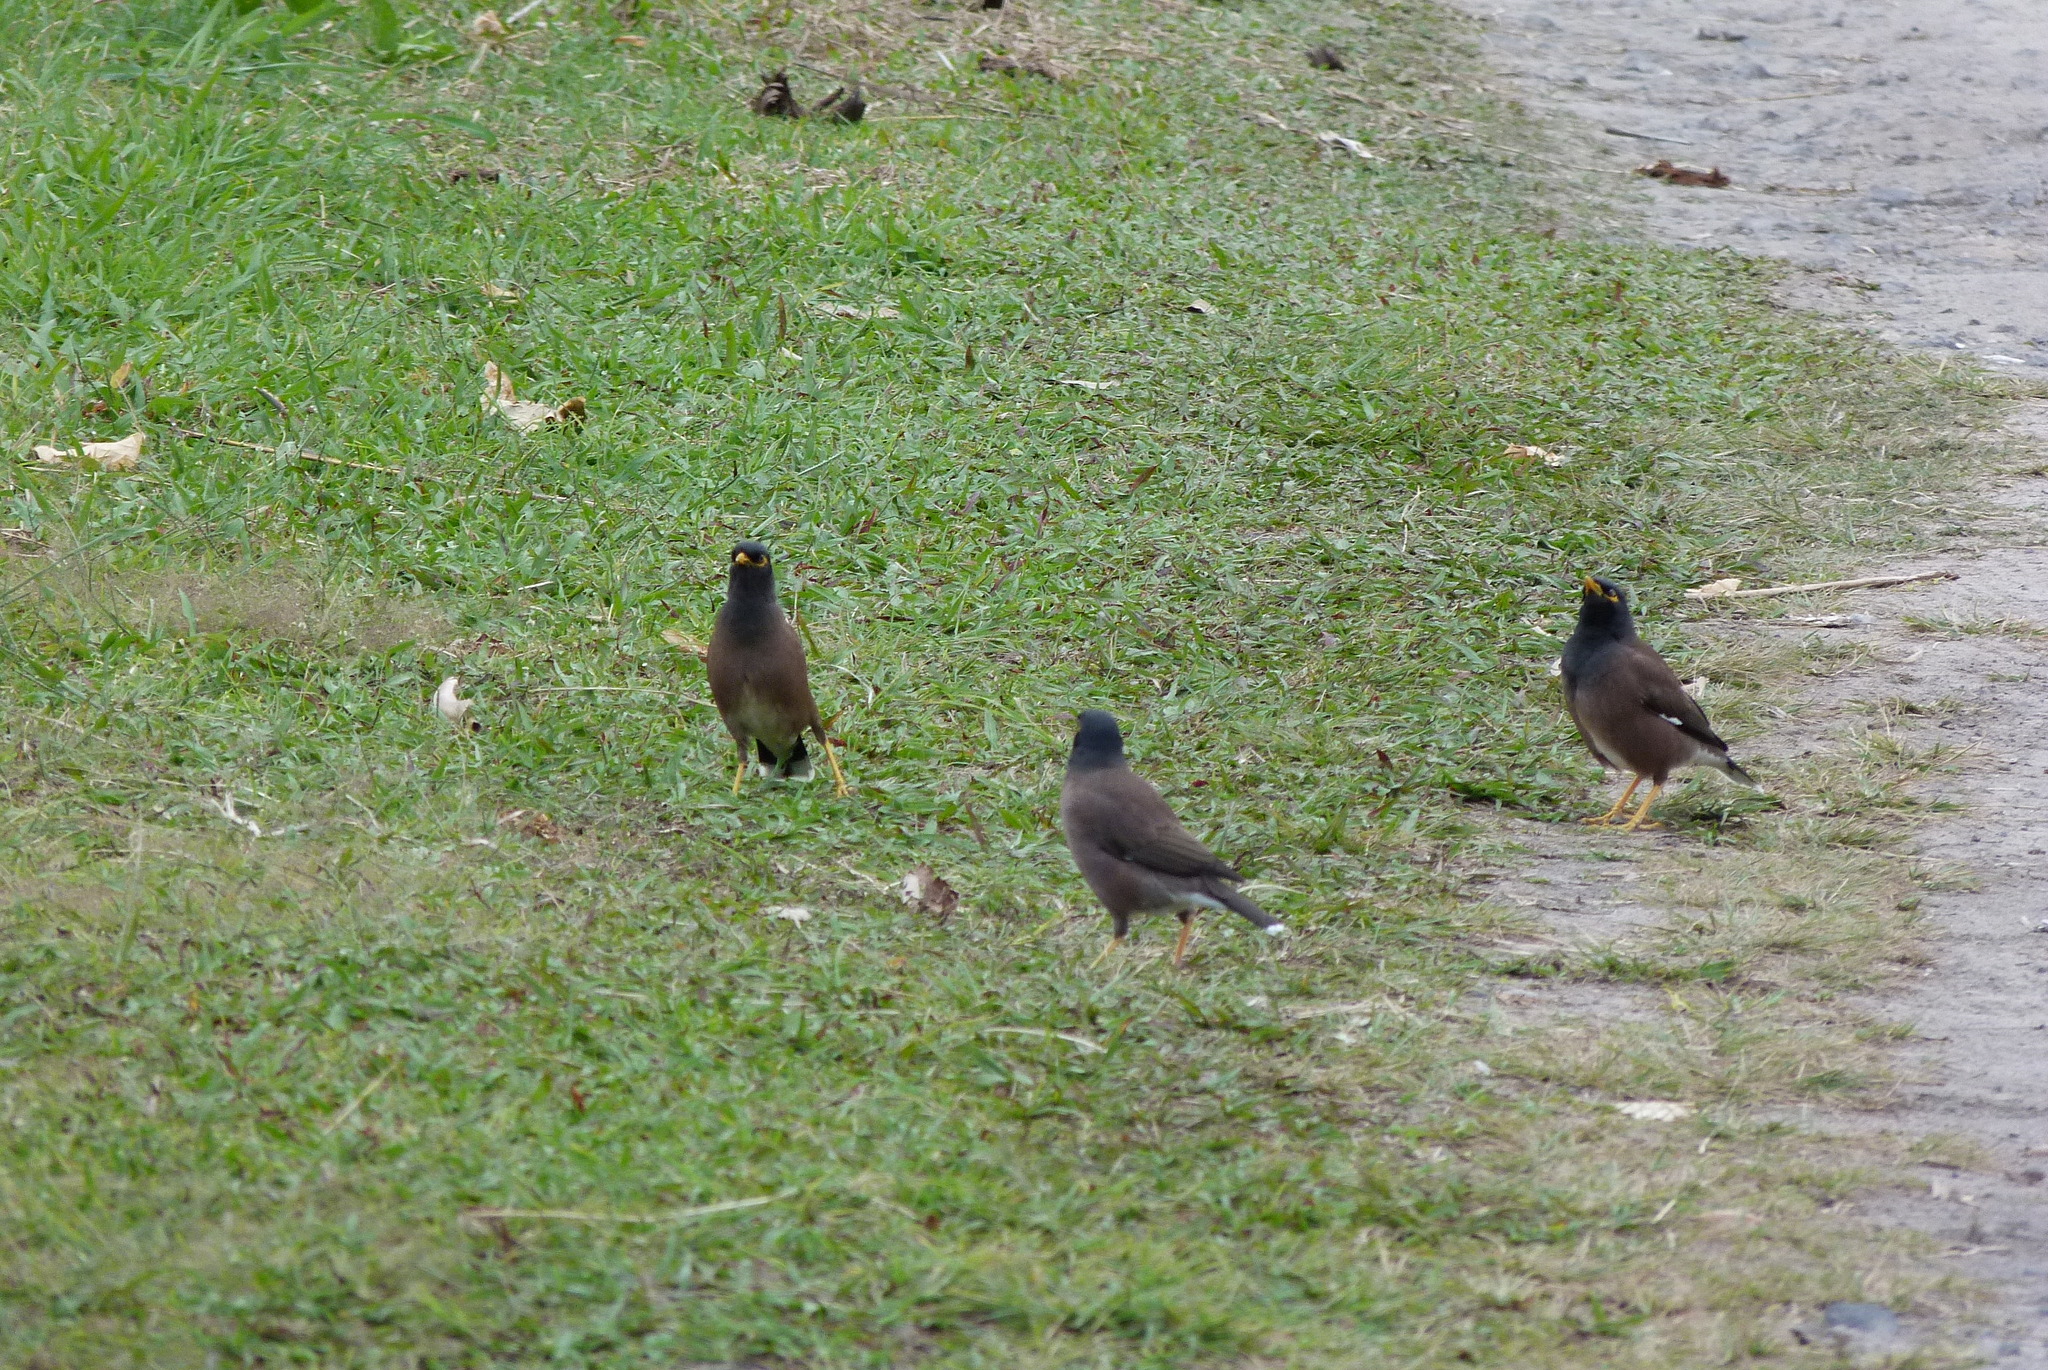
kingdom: Animalia
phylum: Chordata
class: Aves
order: Passeriformes
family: Sturnidae
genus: Acridotheres
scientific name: Acridotheres tristis
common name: Common myna
